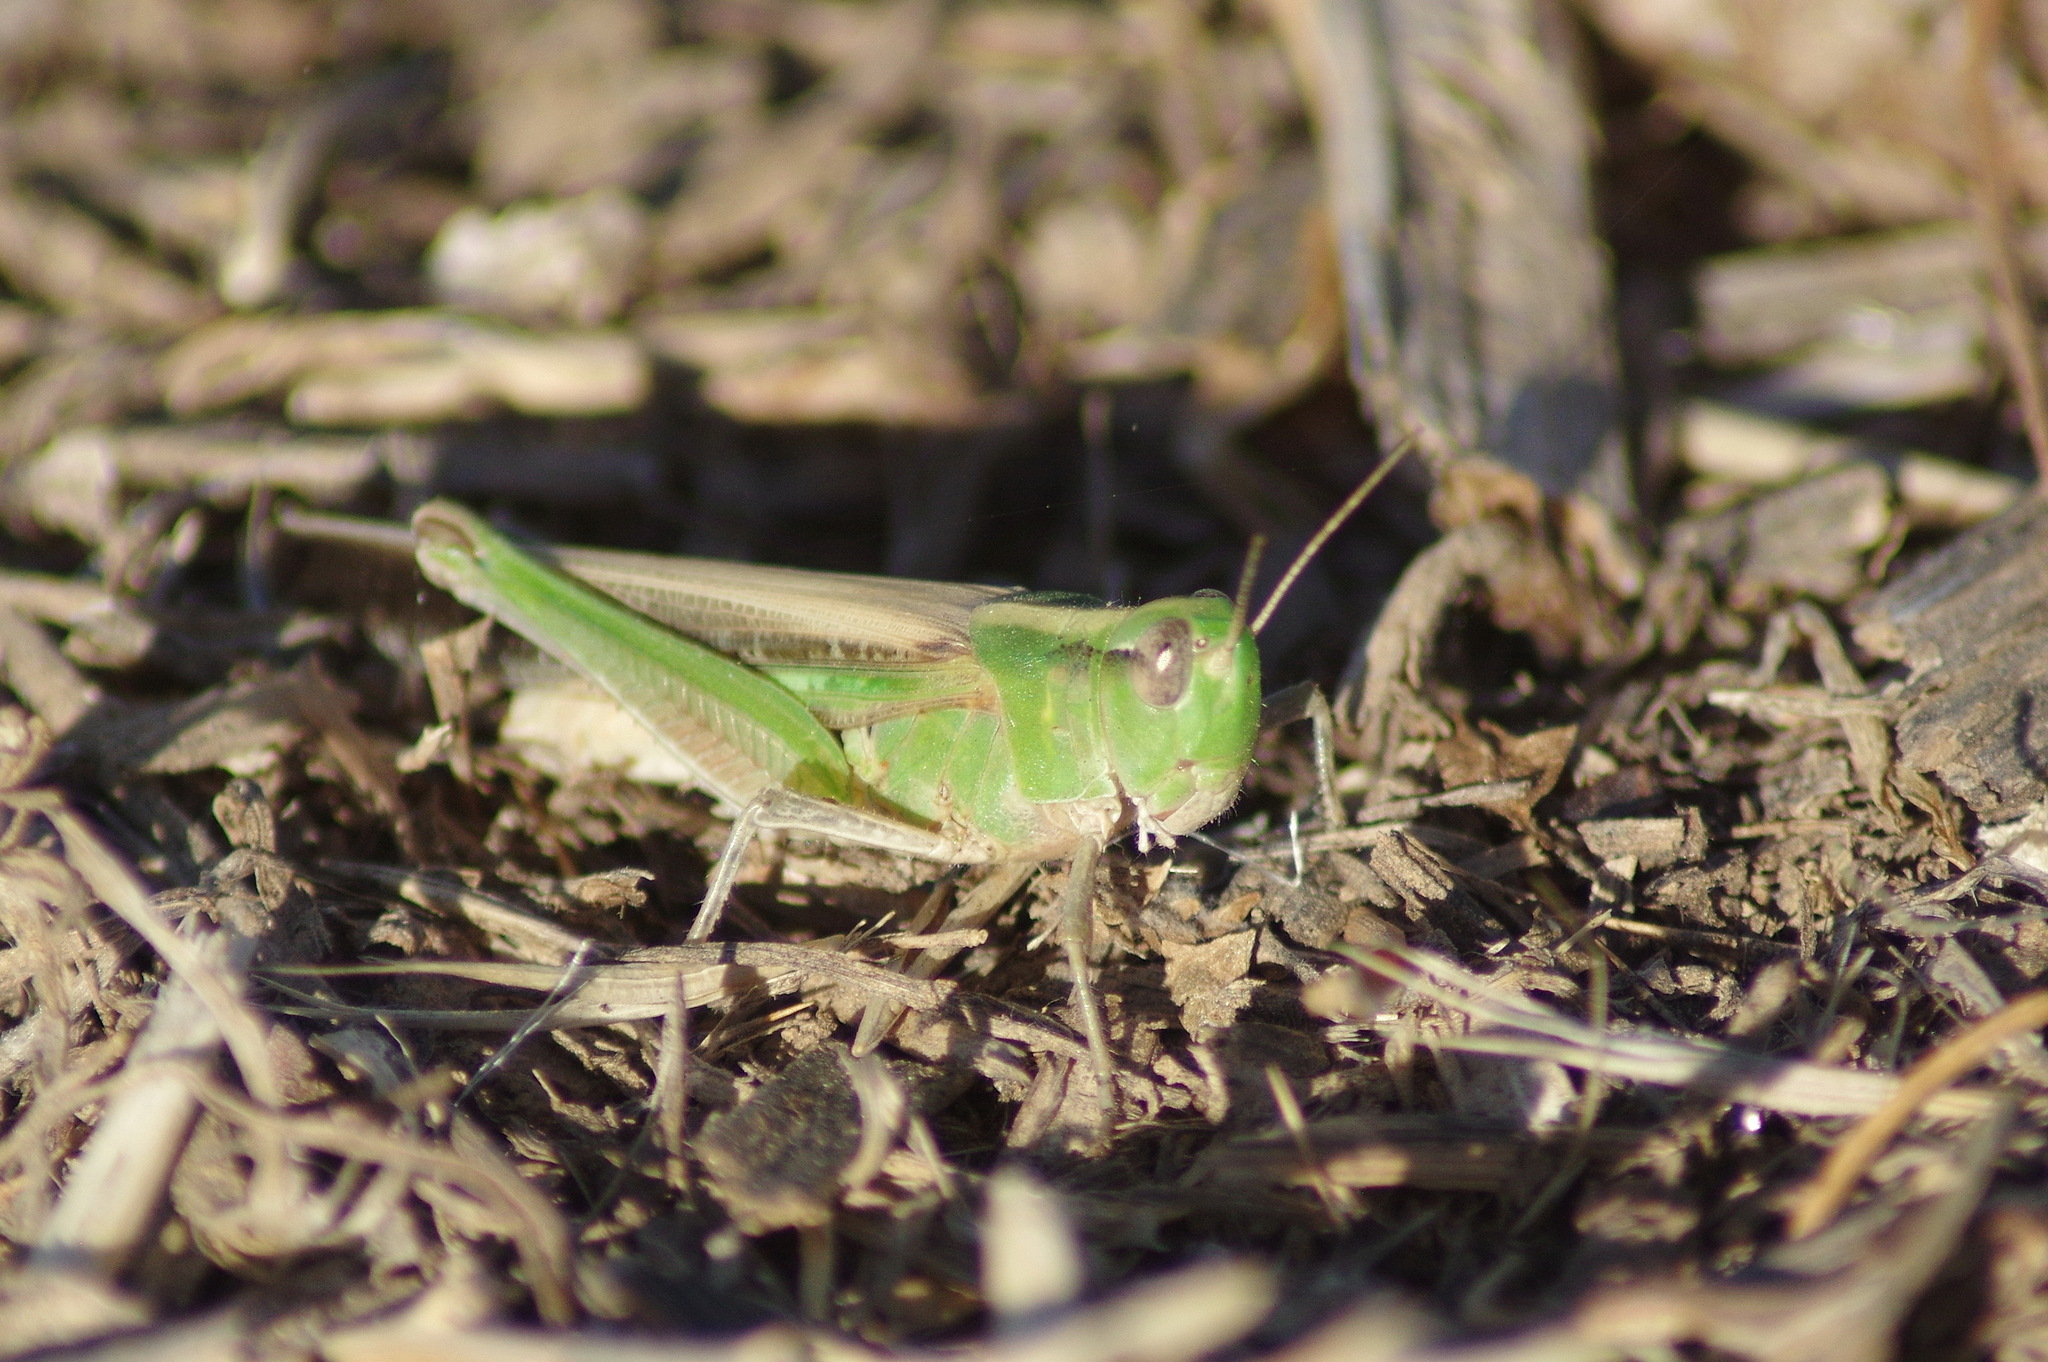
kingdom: Animalia
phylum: Arthropoda
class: Insecta
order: Orthoptera
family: Acrididae
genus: Aiolopus
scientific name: Aiolopus puissanti
